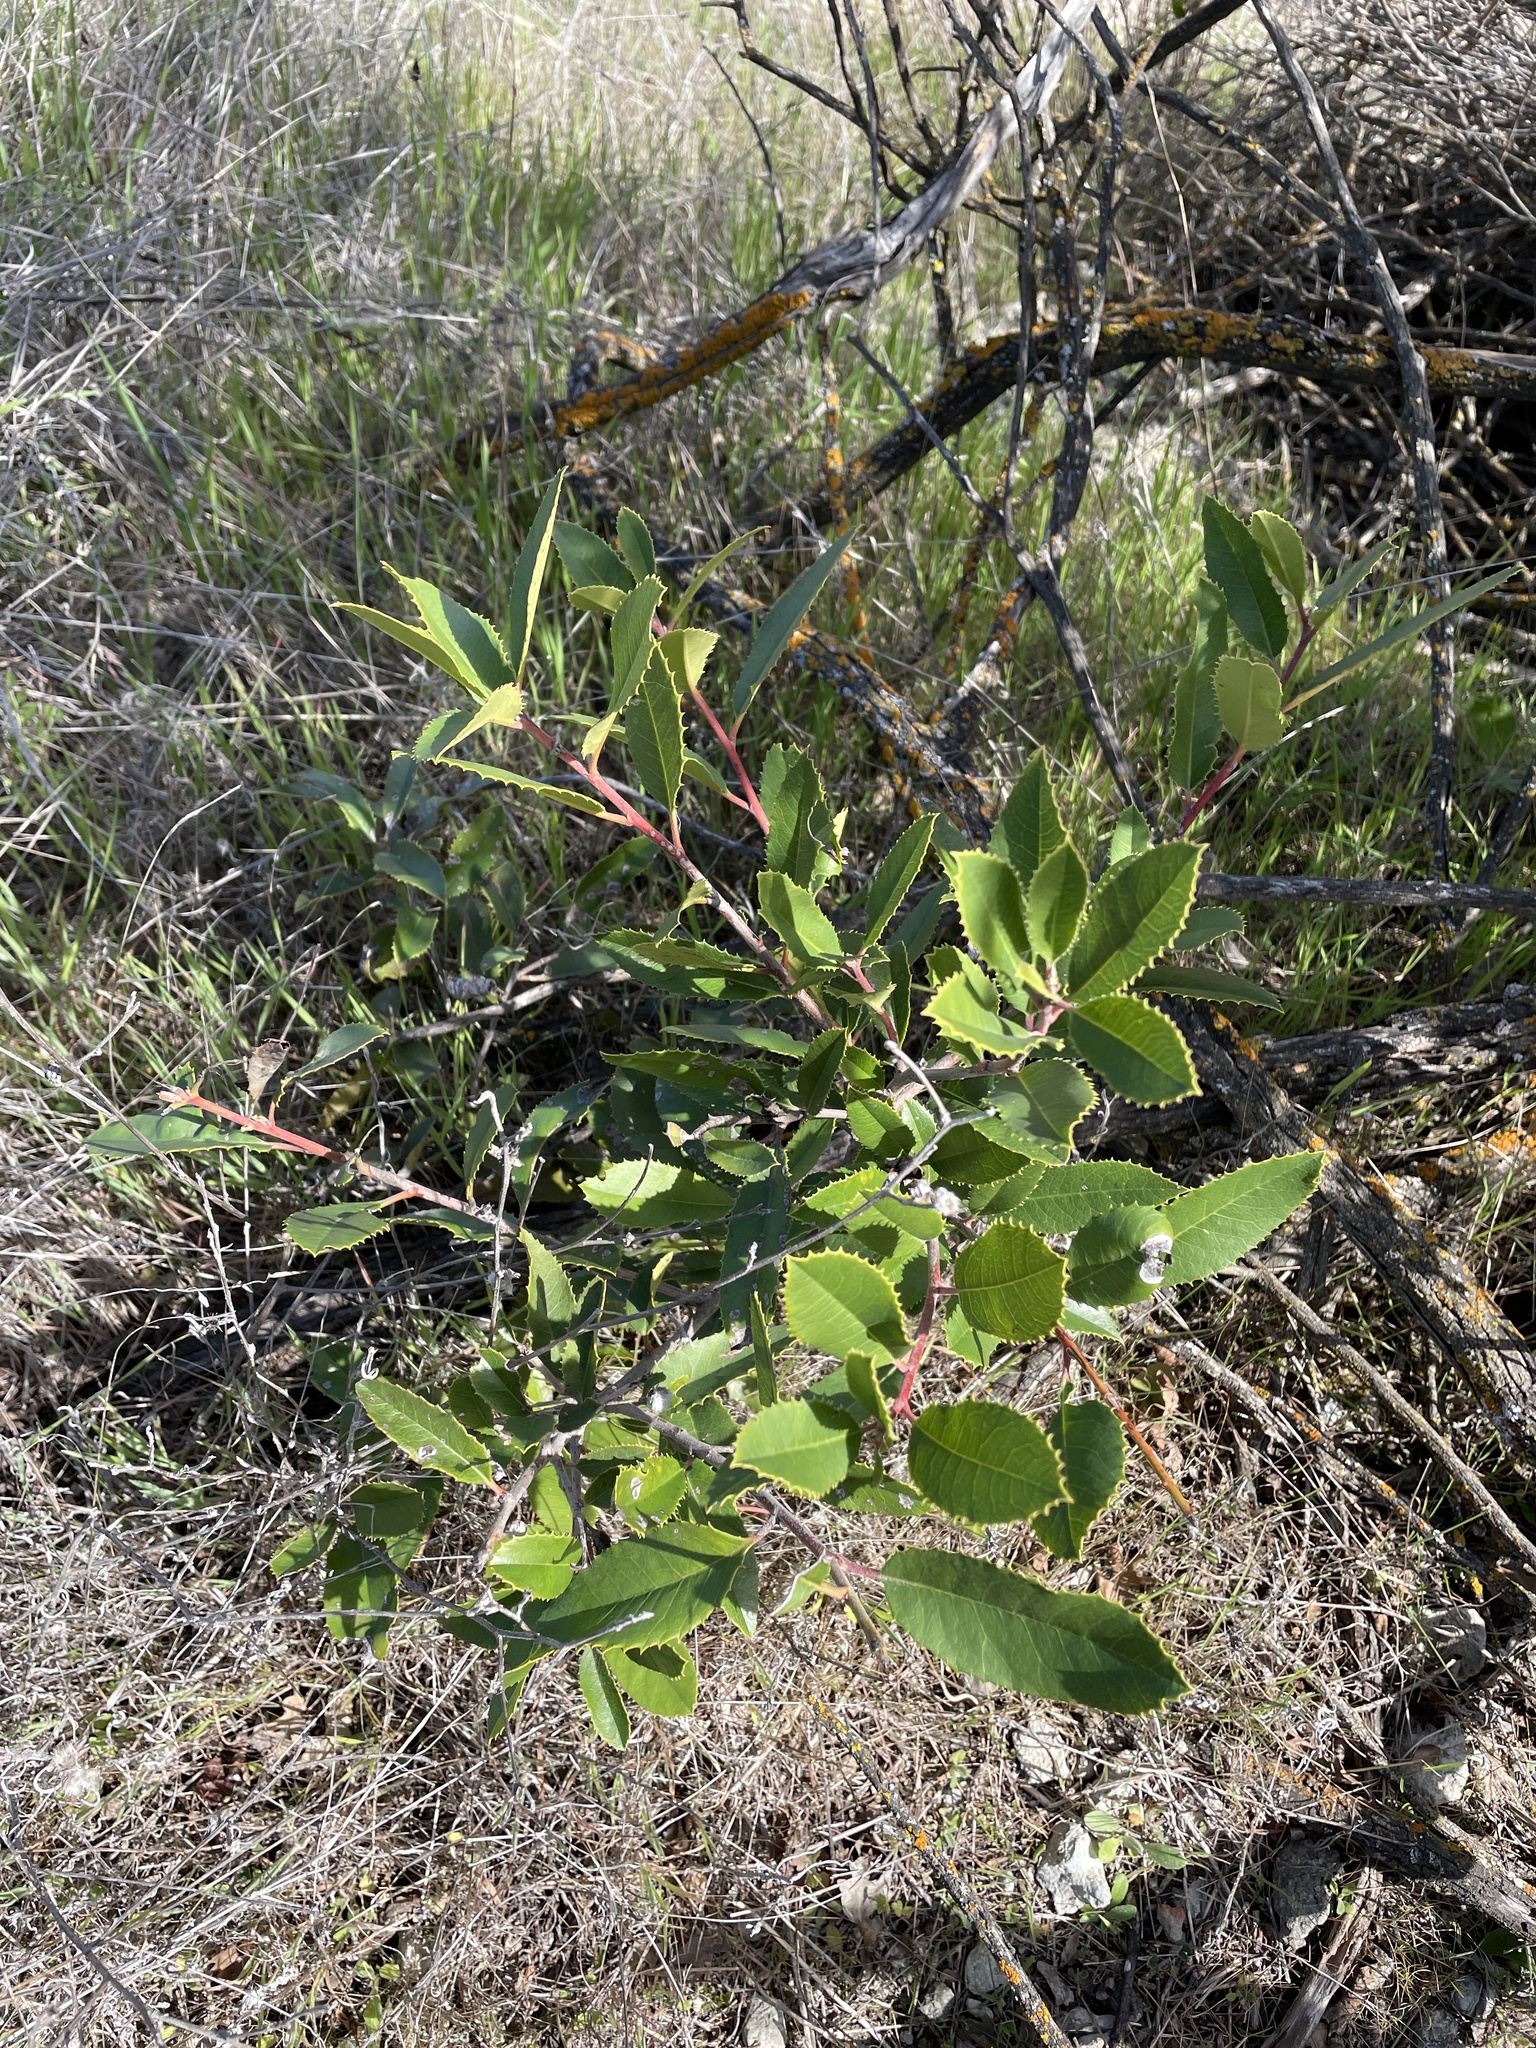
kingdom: Plantae
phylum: Tracheophyta
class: Magnoliopsida
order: Rosales
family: Rosaceae
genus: Heteromeles
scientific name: Heteromeles arbutifolia
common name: California-holly
